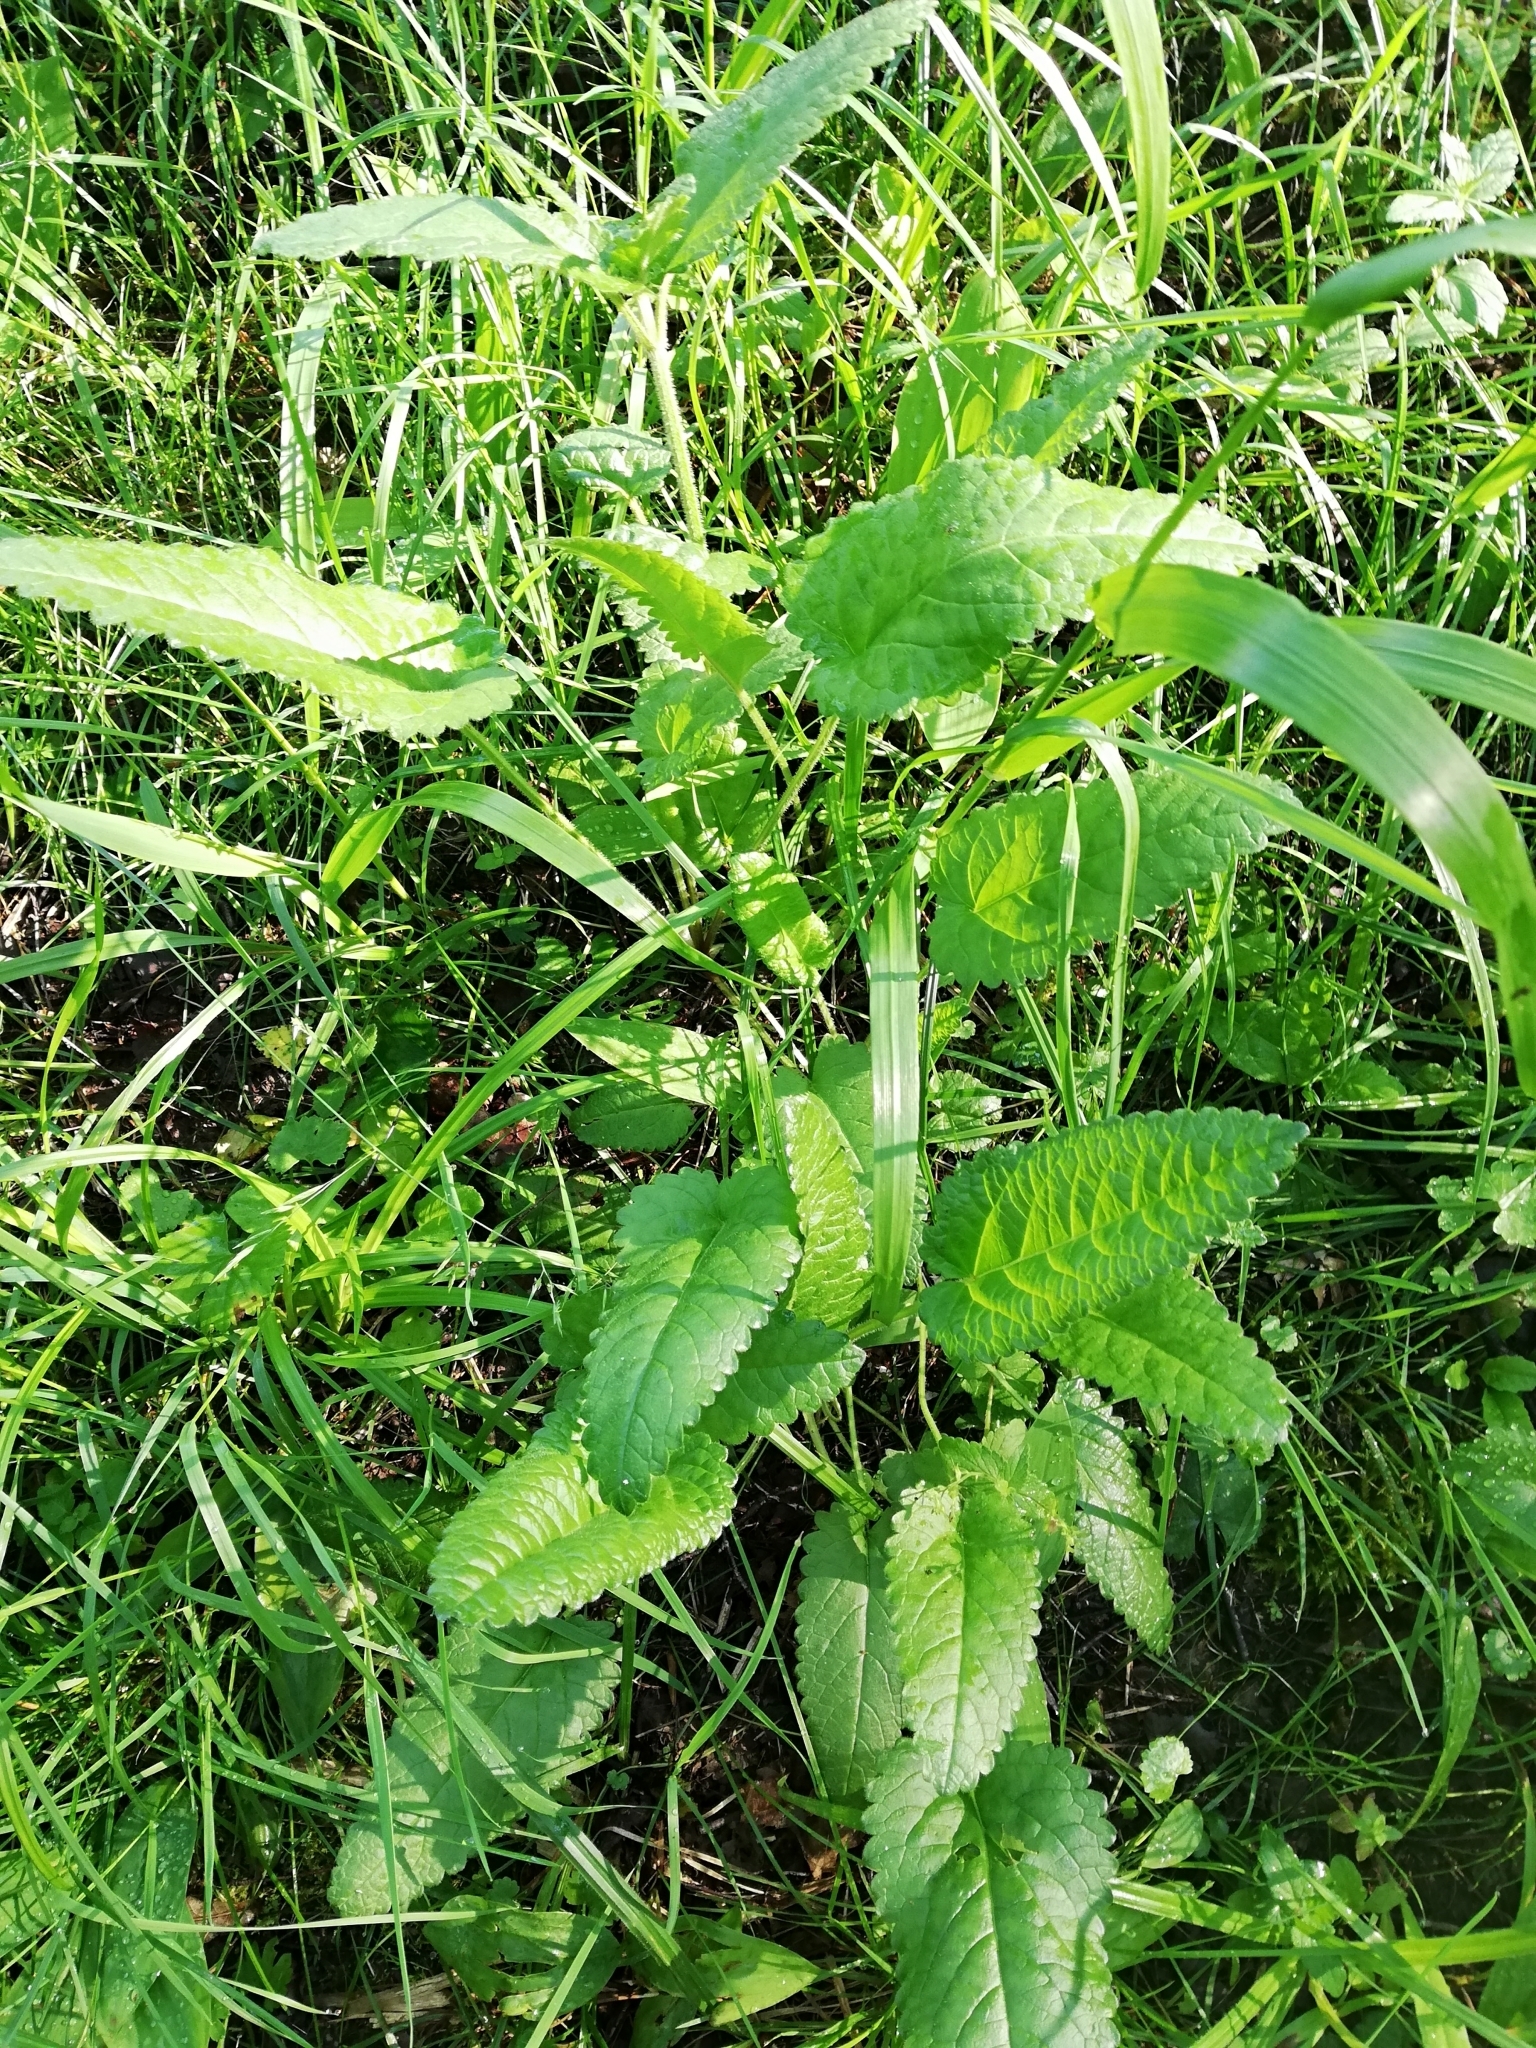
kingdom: Plantae
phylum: Tracheophyta
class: Magnoliopsida
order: Lamiales
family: Lamiaceae
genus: Betonica
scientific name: Betonica officinalis
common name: Bishop's-wort
